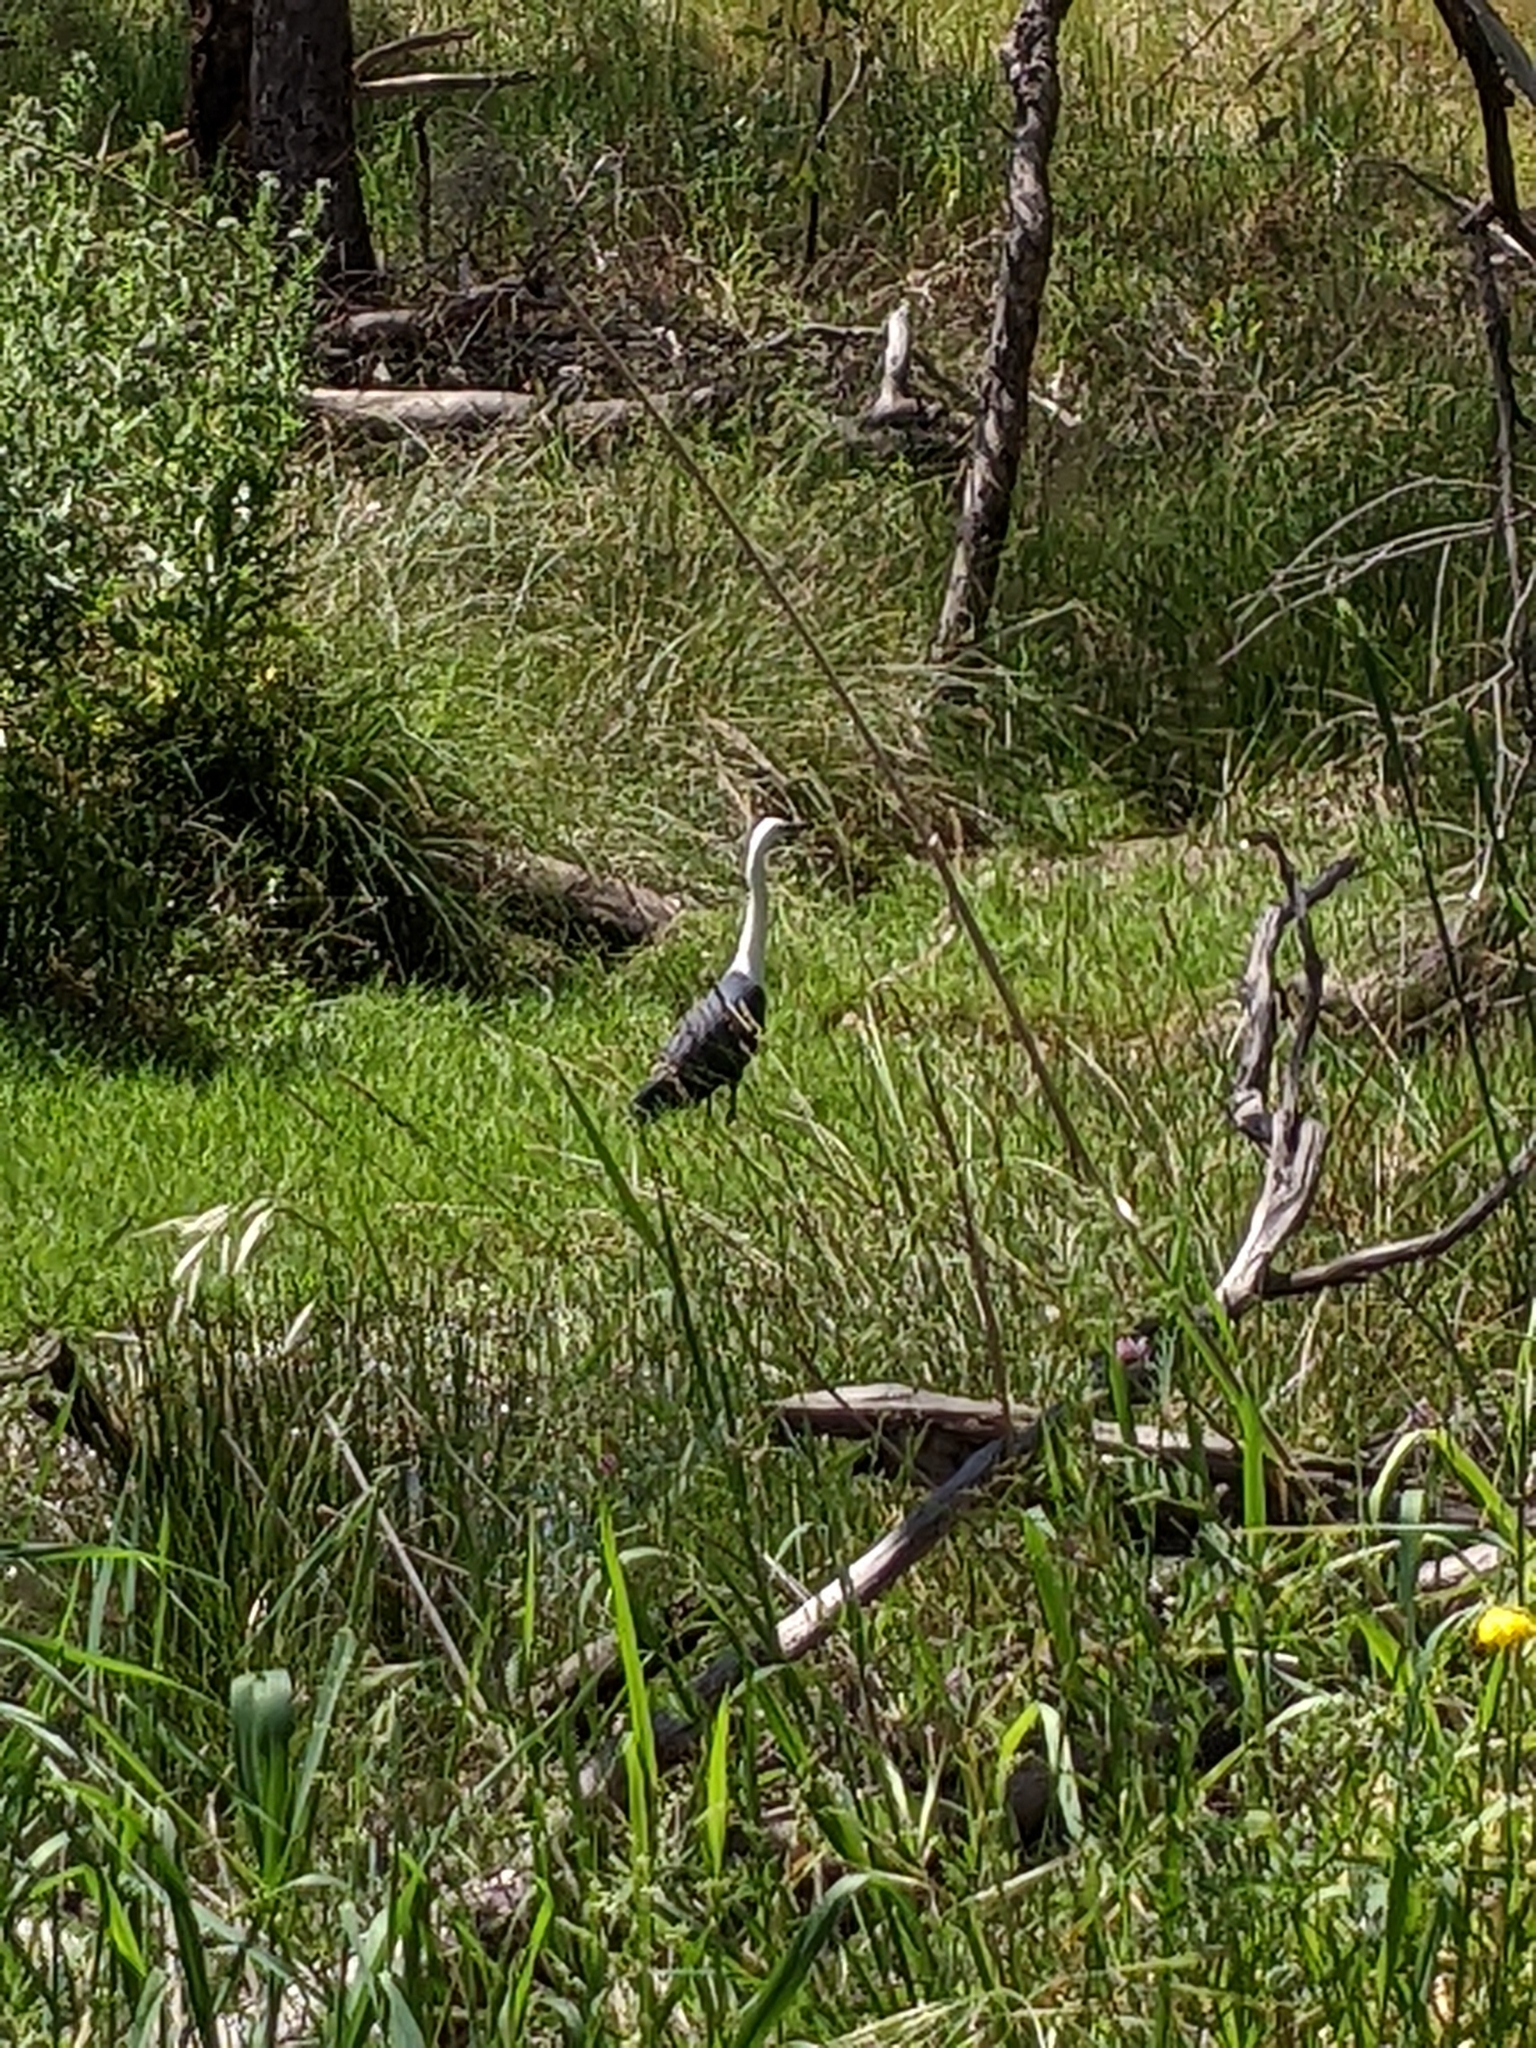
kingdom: Animalia
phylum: Chordata
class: Aves
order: Pelecaniformes
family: Ardeidae
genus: Ardea
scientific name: Ardea pacifica
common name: White-necked heron
